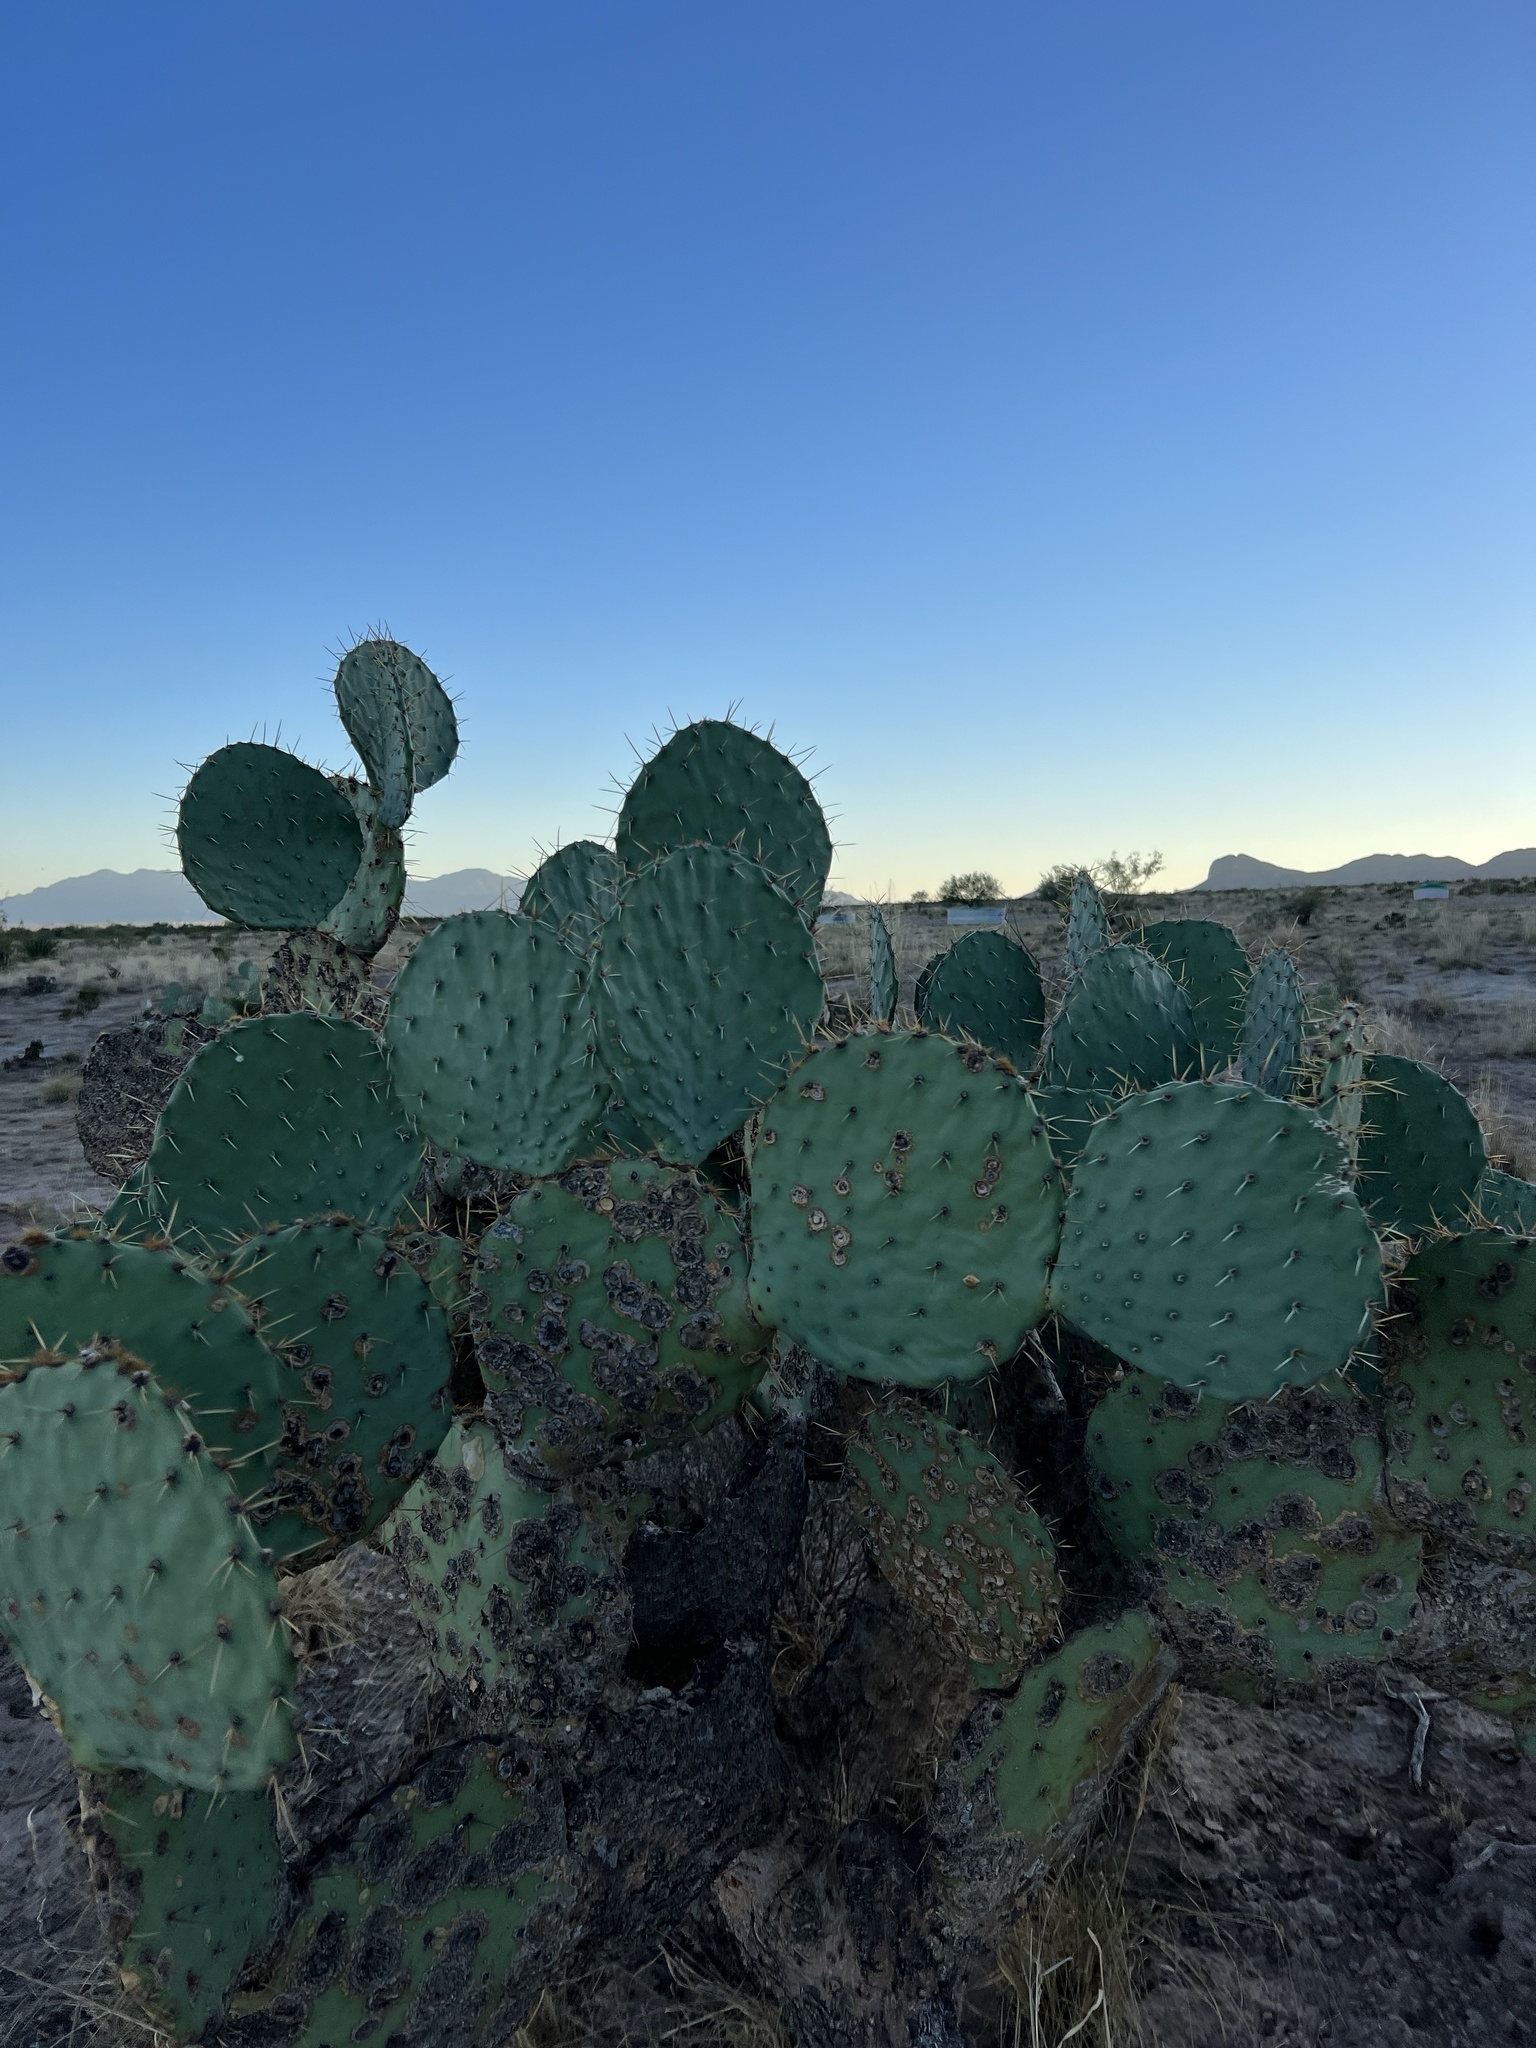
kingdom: Plantae
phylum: Tracheophyta
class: Magnoliopsida
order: Caryophyllales
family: Cactaceae
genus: Opuntia
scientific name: Opuntia engelmannii
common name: Cactus-apple
